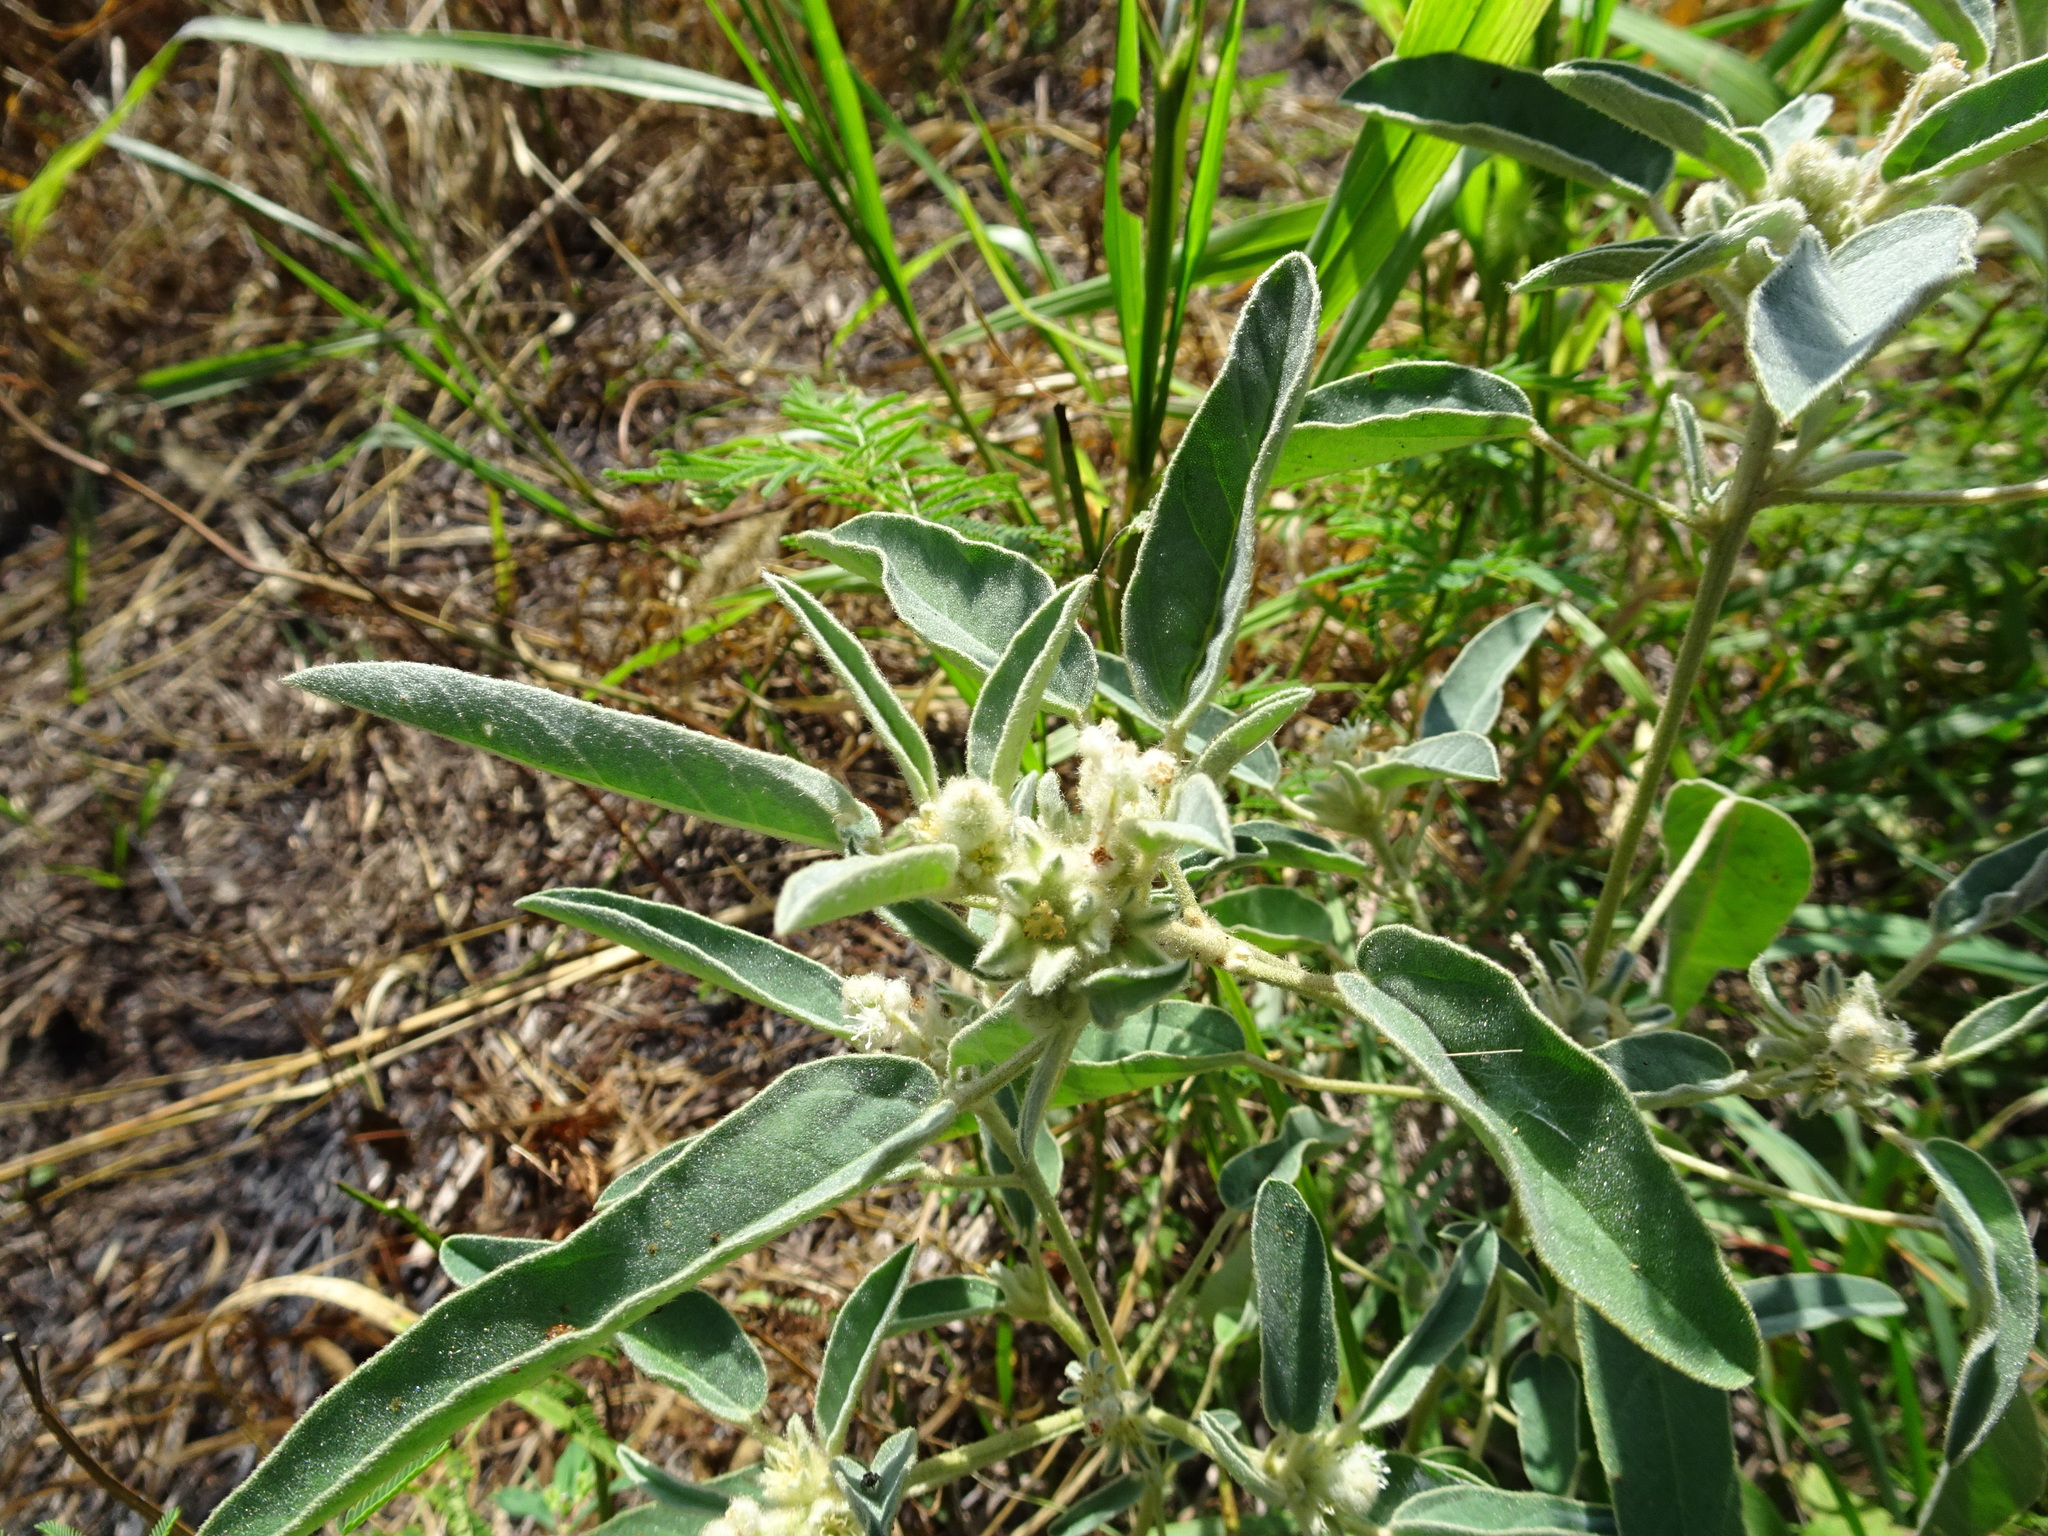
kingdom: Plantae
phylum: Tracheophyta
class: Magnoliopsida
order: Malpighiales
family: Euphorbiaceae
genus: Croton
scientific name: Croton capitatus
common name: Woolly croton
